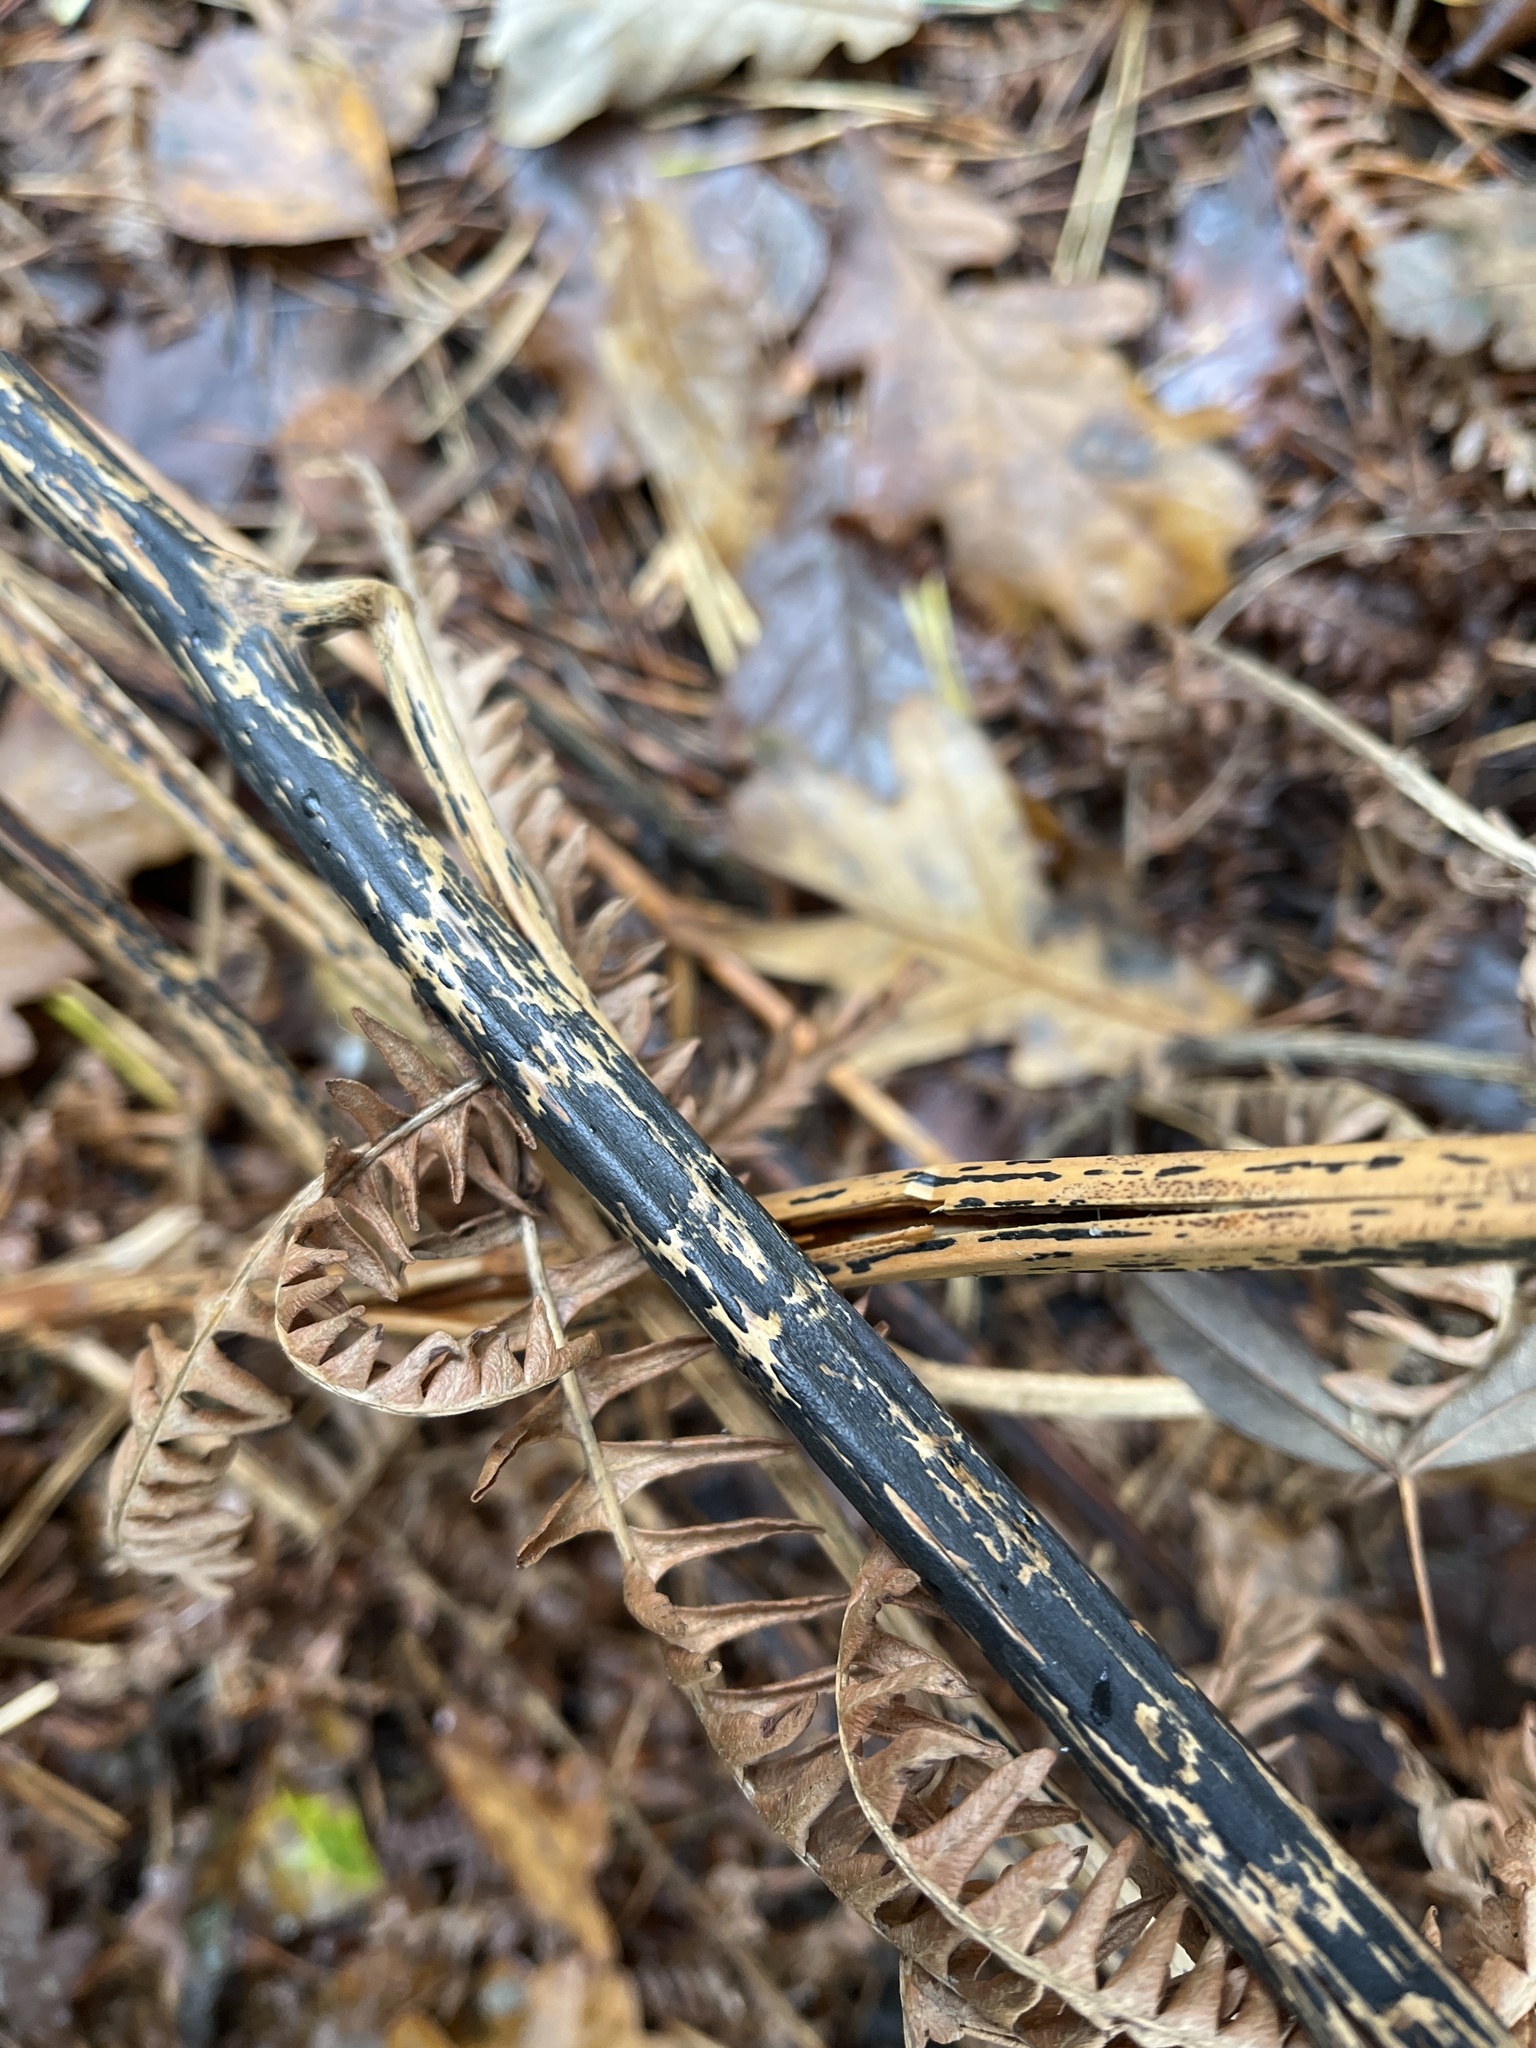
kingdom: Fungi
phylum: Ascomycota
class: Dothideomycetes
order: Pleosporales
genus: Rhopographus
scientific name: Rhopographus filicinus
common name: Bracken map
